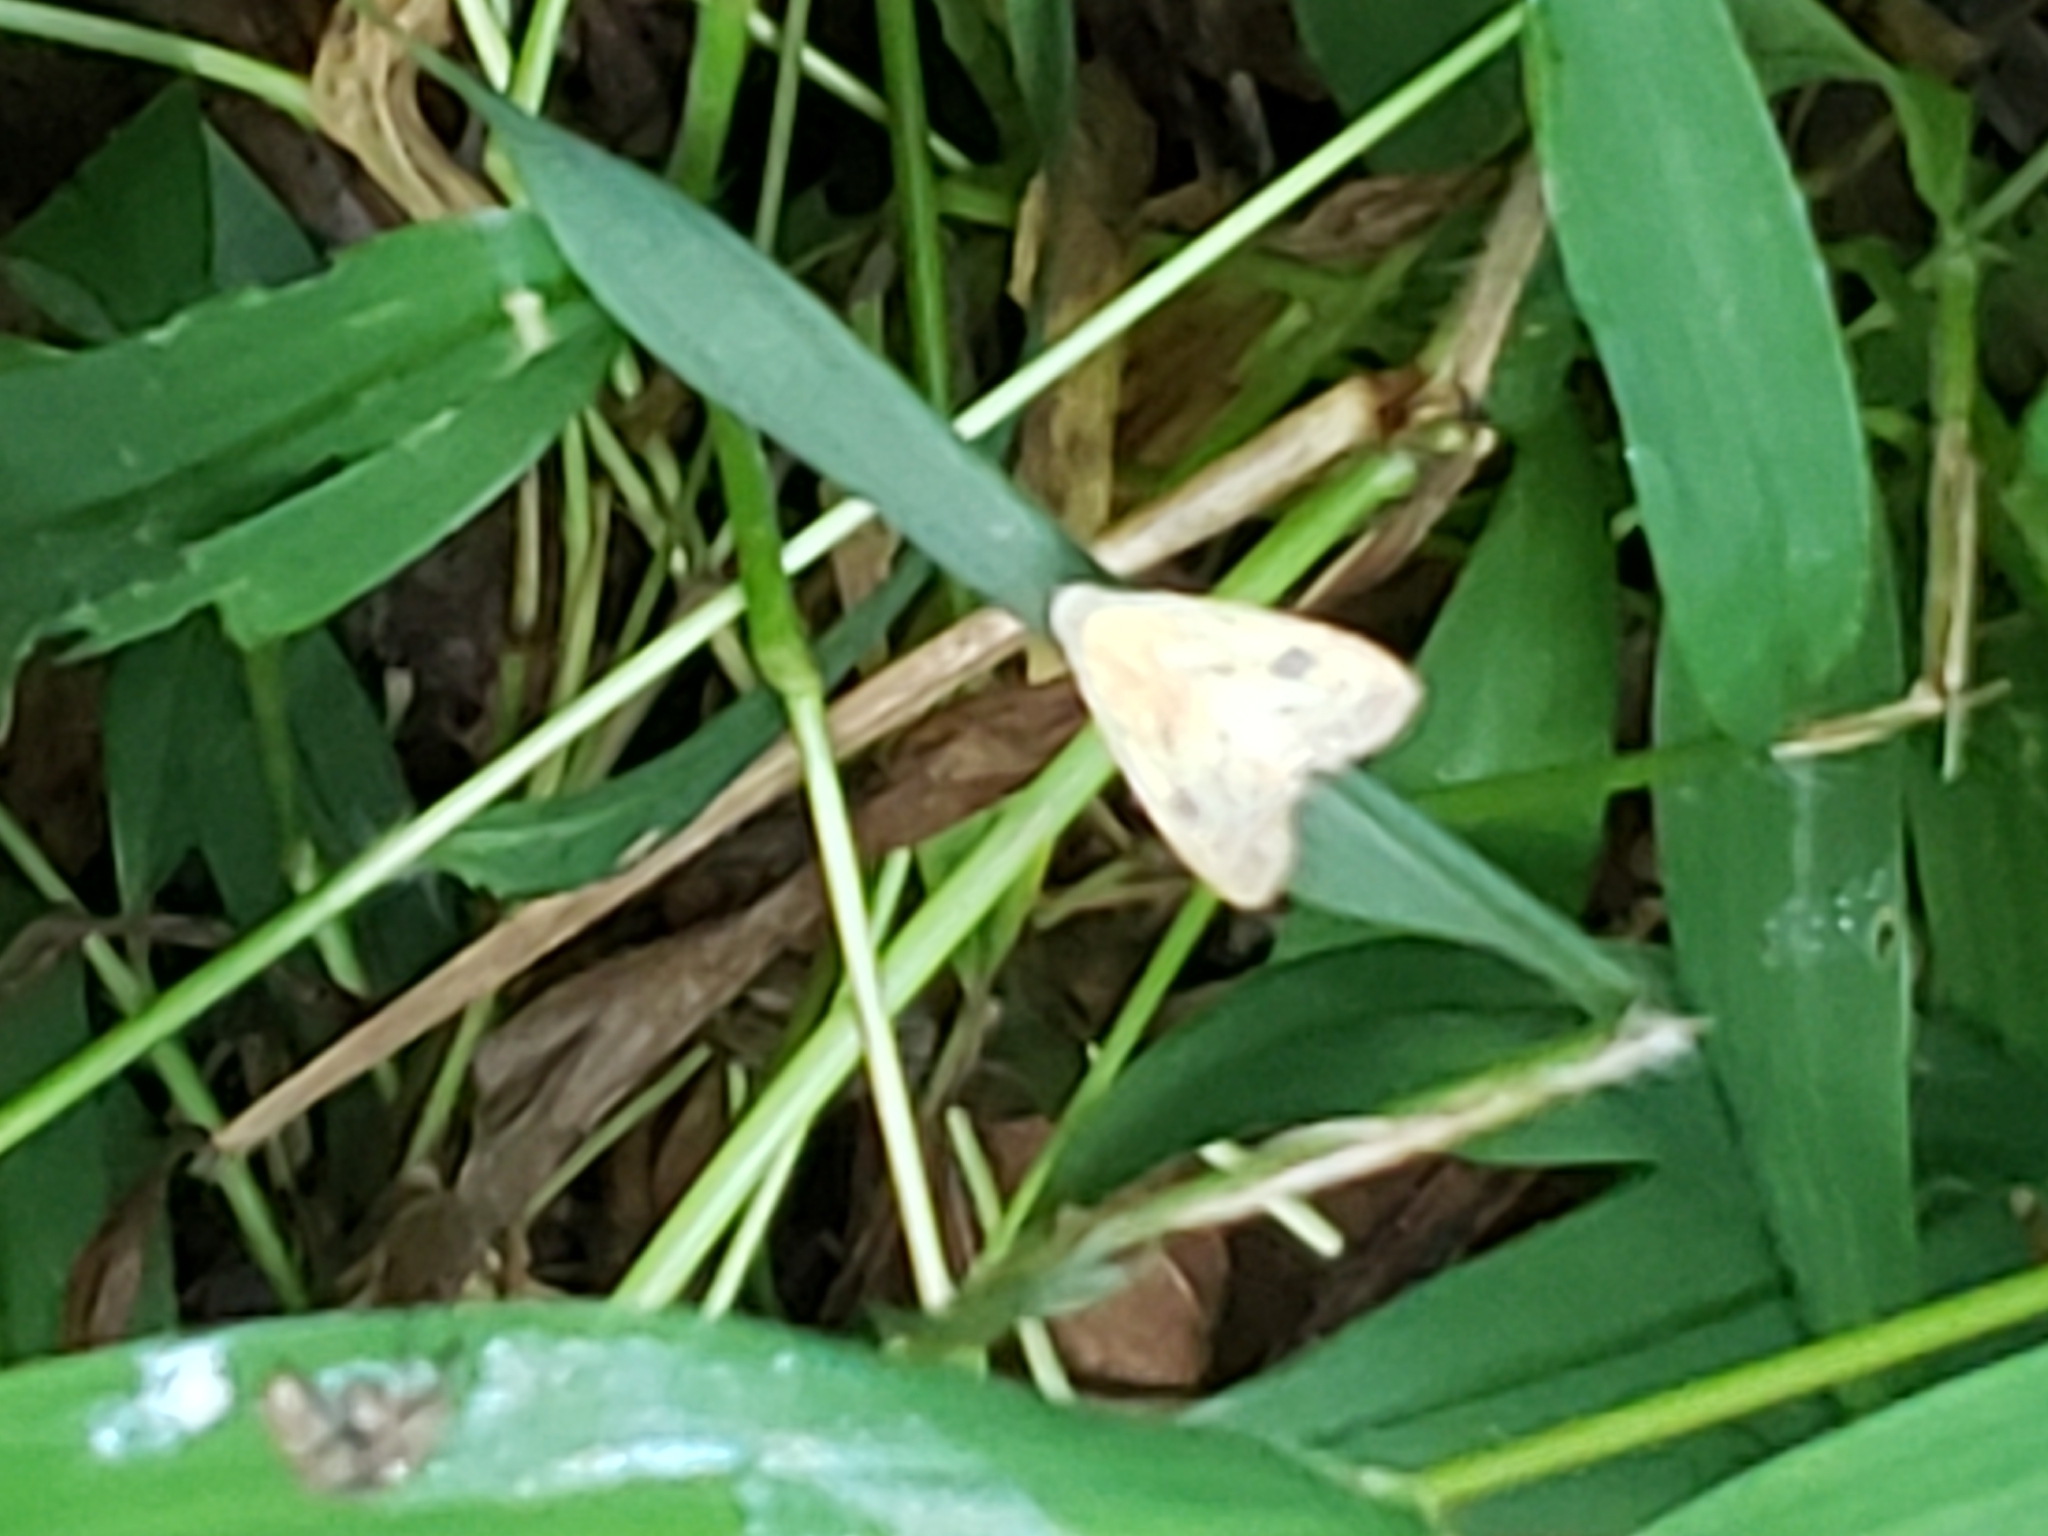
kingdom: Animalia
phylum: Arthropoda
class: Insecta
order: Lepidoptera
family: Erebidae
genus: Rivula
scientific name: Rivula propinqualis
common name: Spotted grass moth
